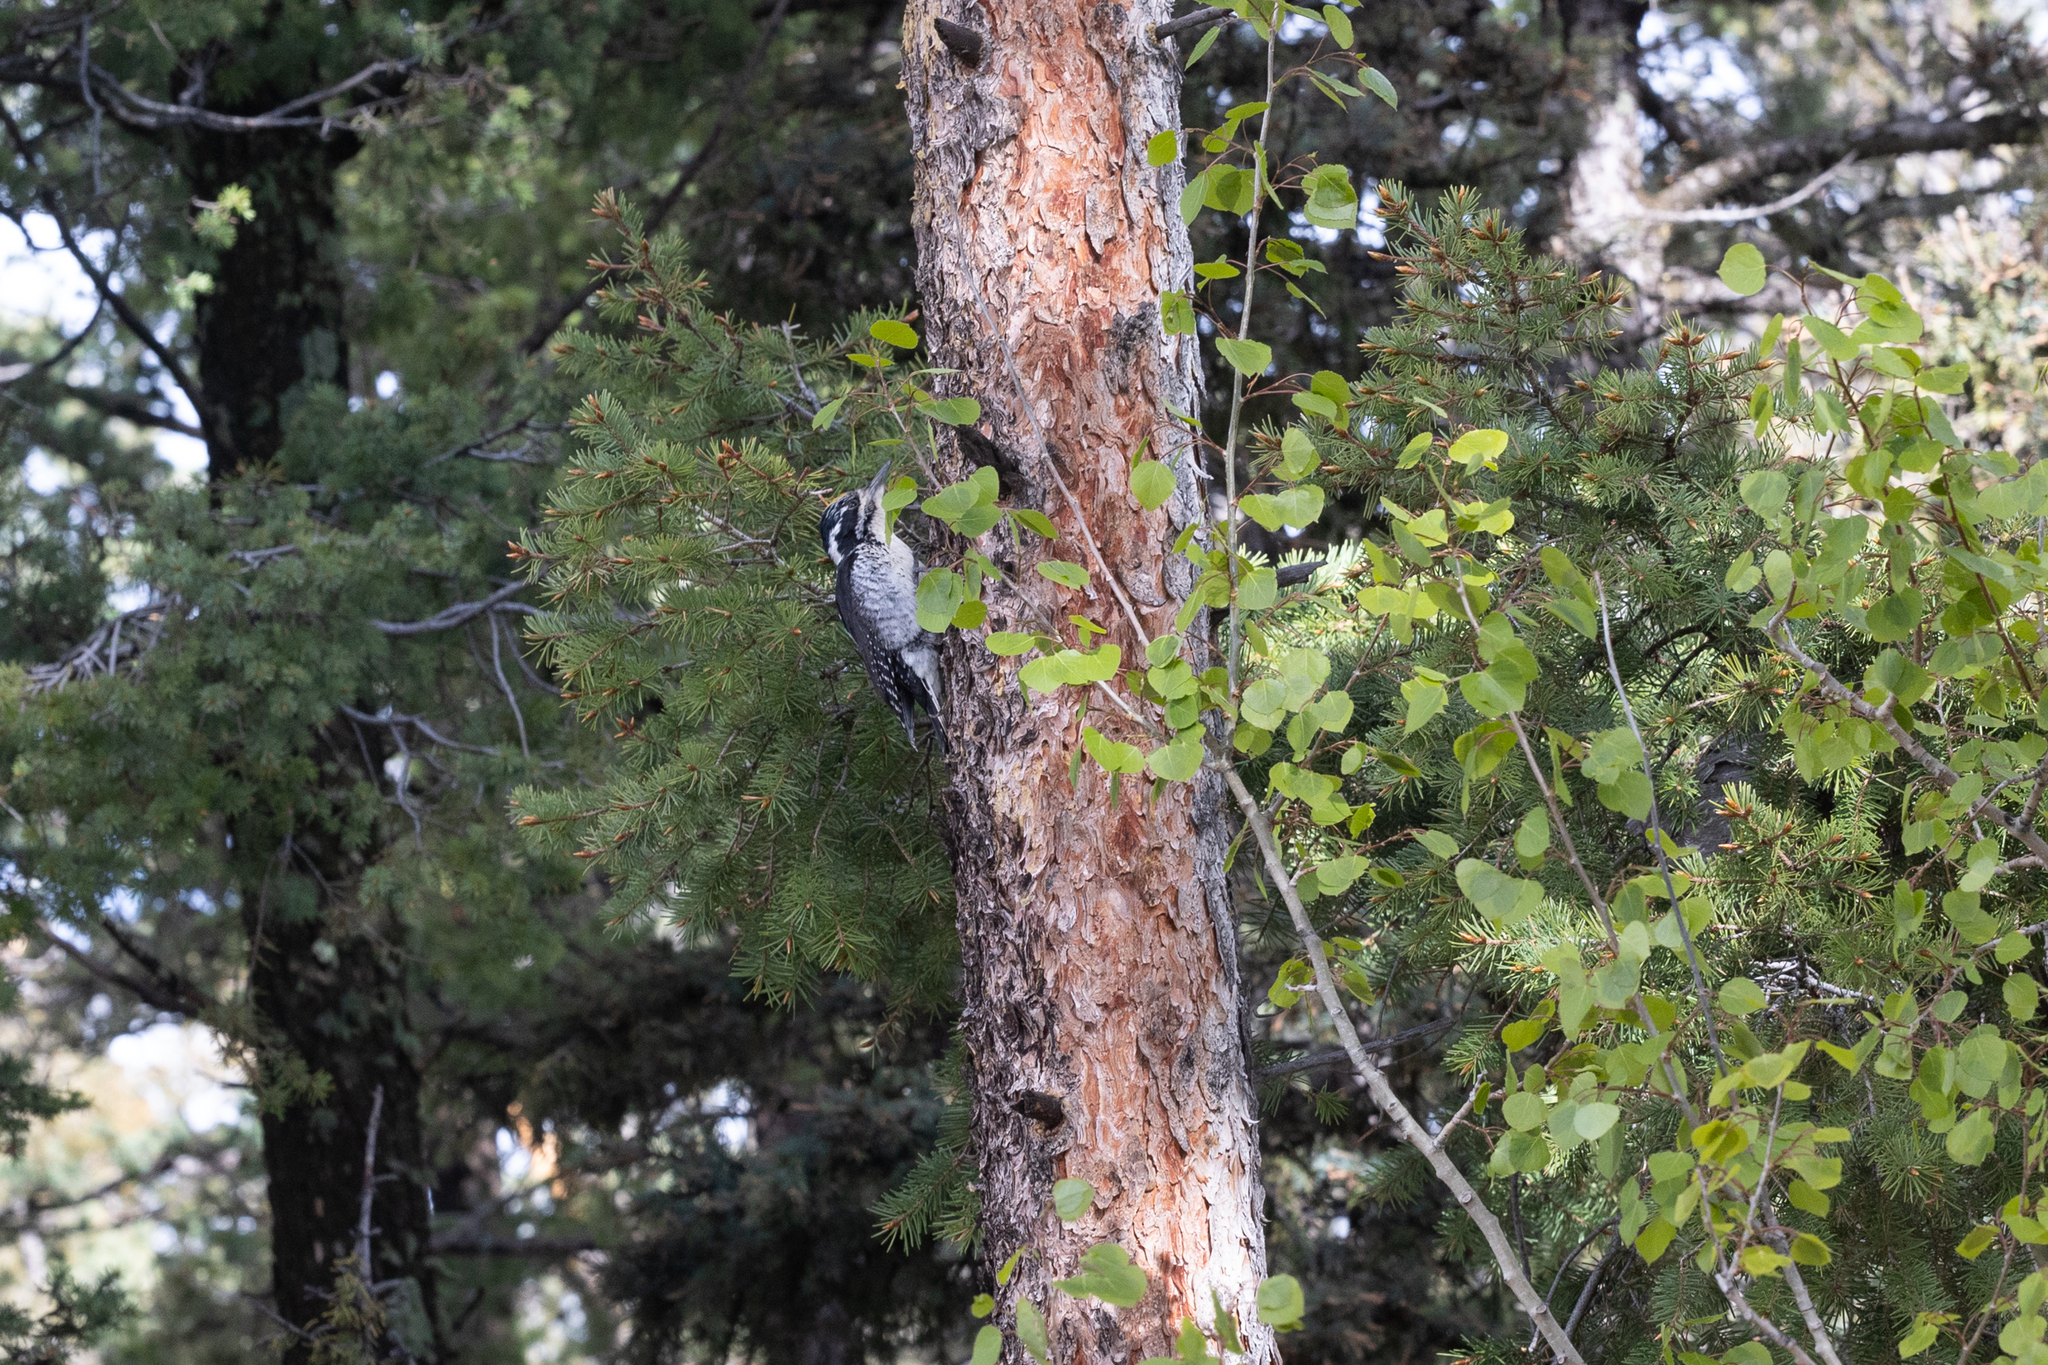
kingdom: Animalia
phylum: Chordata
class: Aves
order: Piciformes
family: Picidae
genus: Picoides
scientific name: Picoides dorsalis
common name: American three-toed woodpecker
